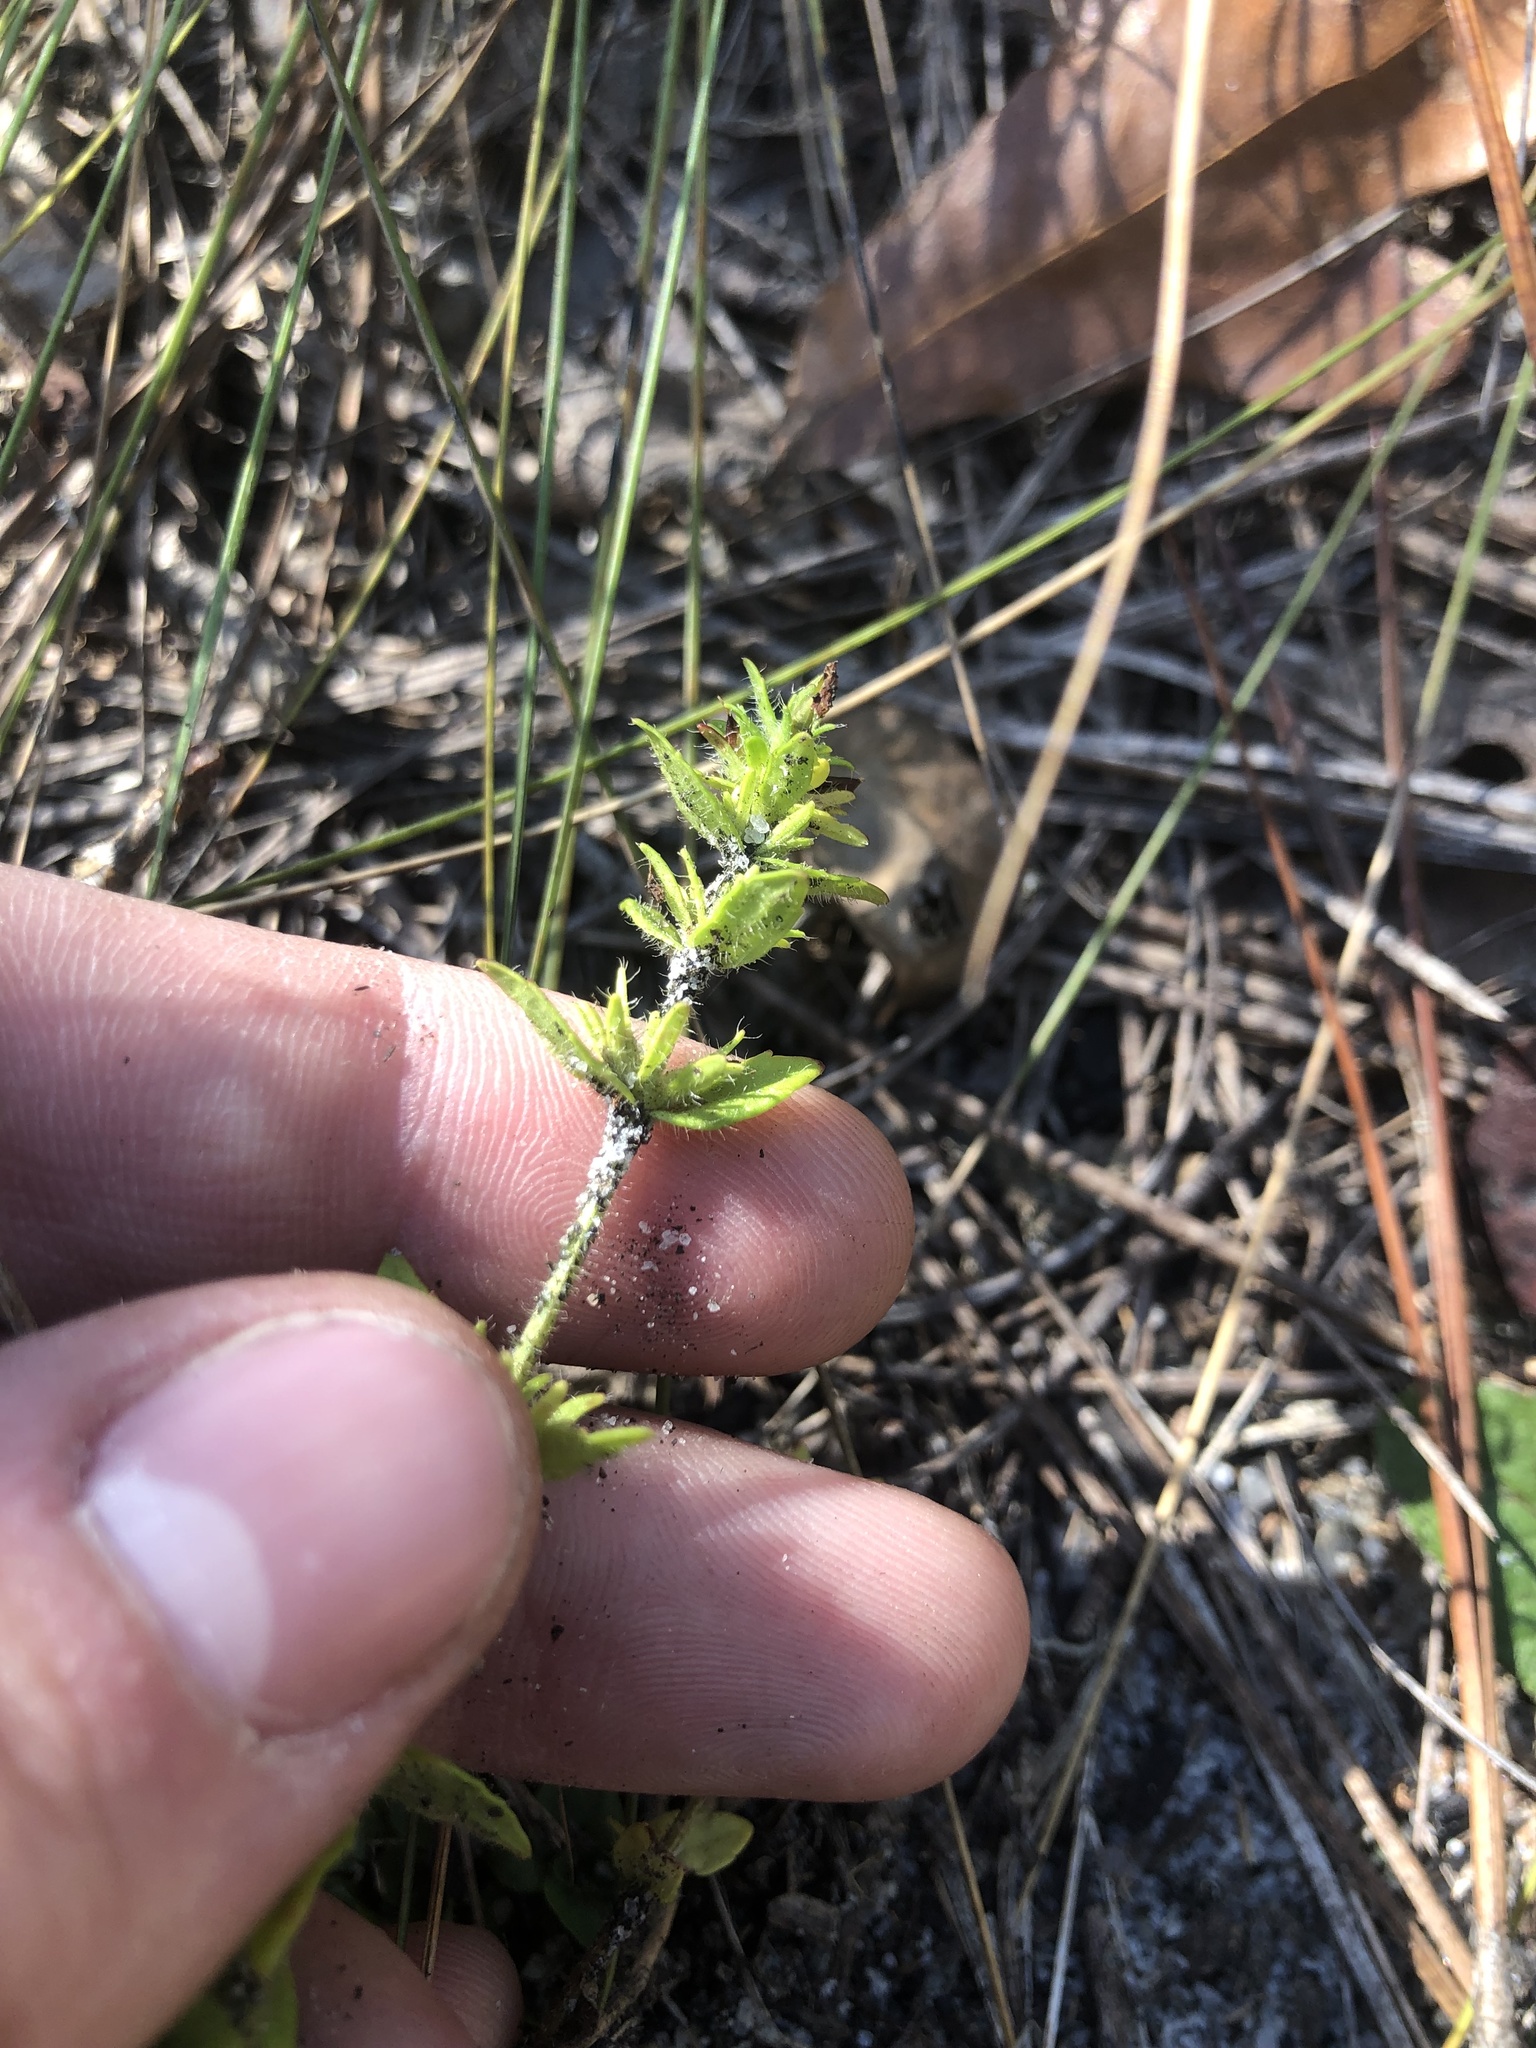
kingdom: Plantae
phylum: Tracheophyta
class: Magnoliopsida
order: Lamiales
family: Plantaginaceae
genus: Gratiola
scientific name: Gratiola pilosa
